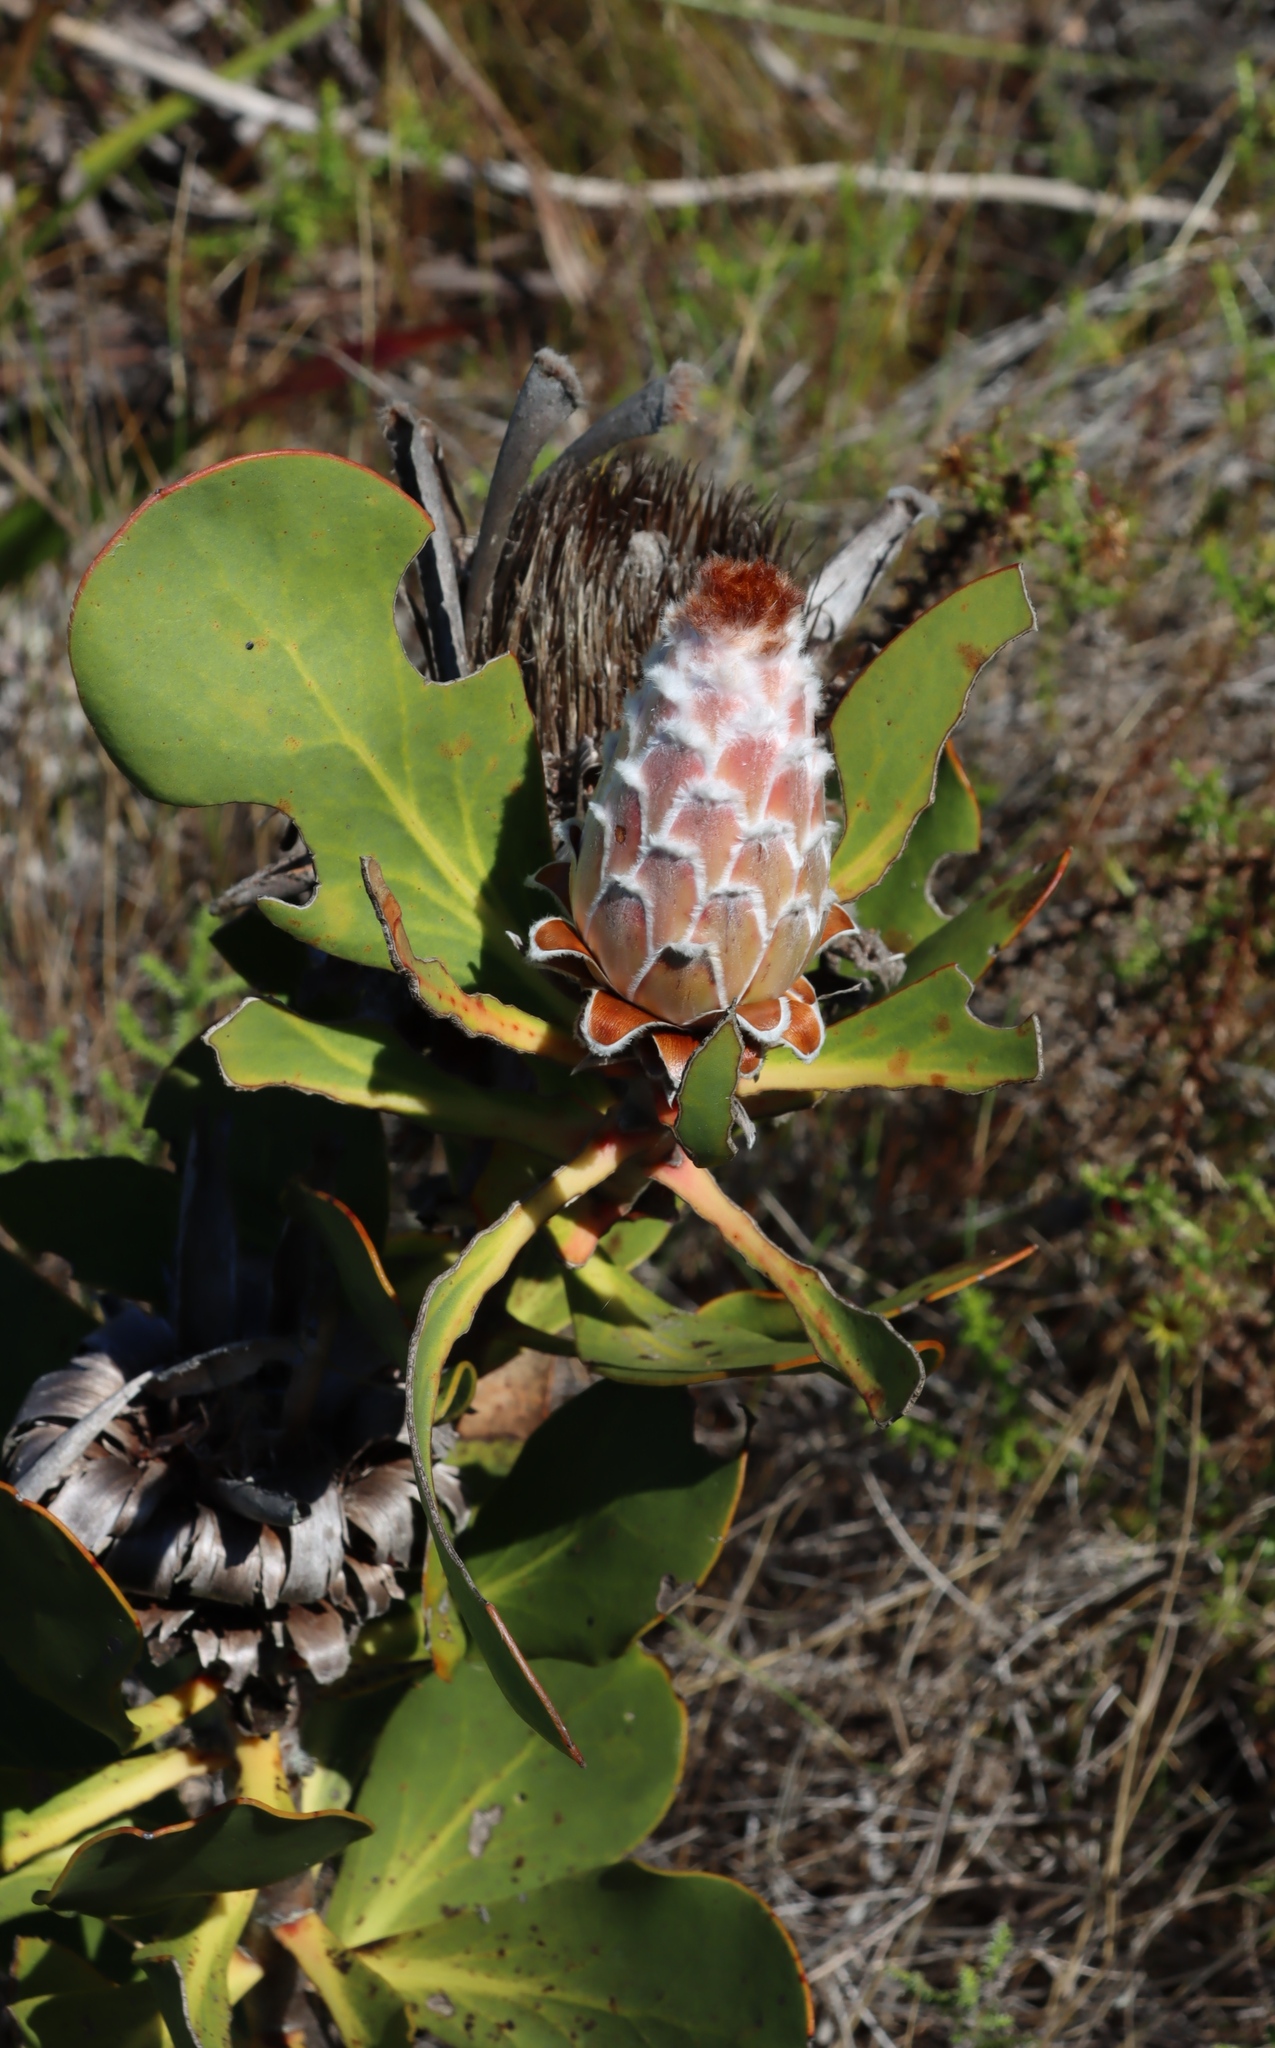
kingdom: Plantae
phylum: Tracheophyta
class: Magnoliopsida
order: Proteales
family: Proteaceae
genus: Protea
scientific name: Protea speciosa
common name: Brown-beard sugarbush
